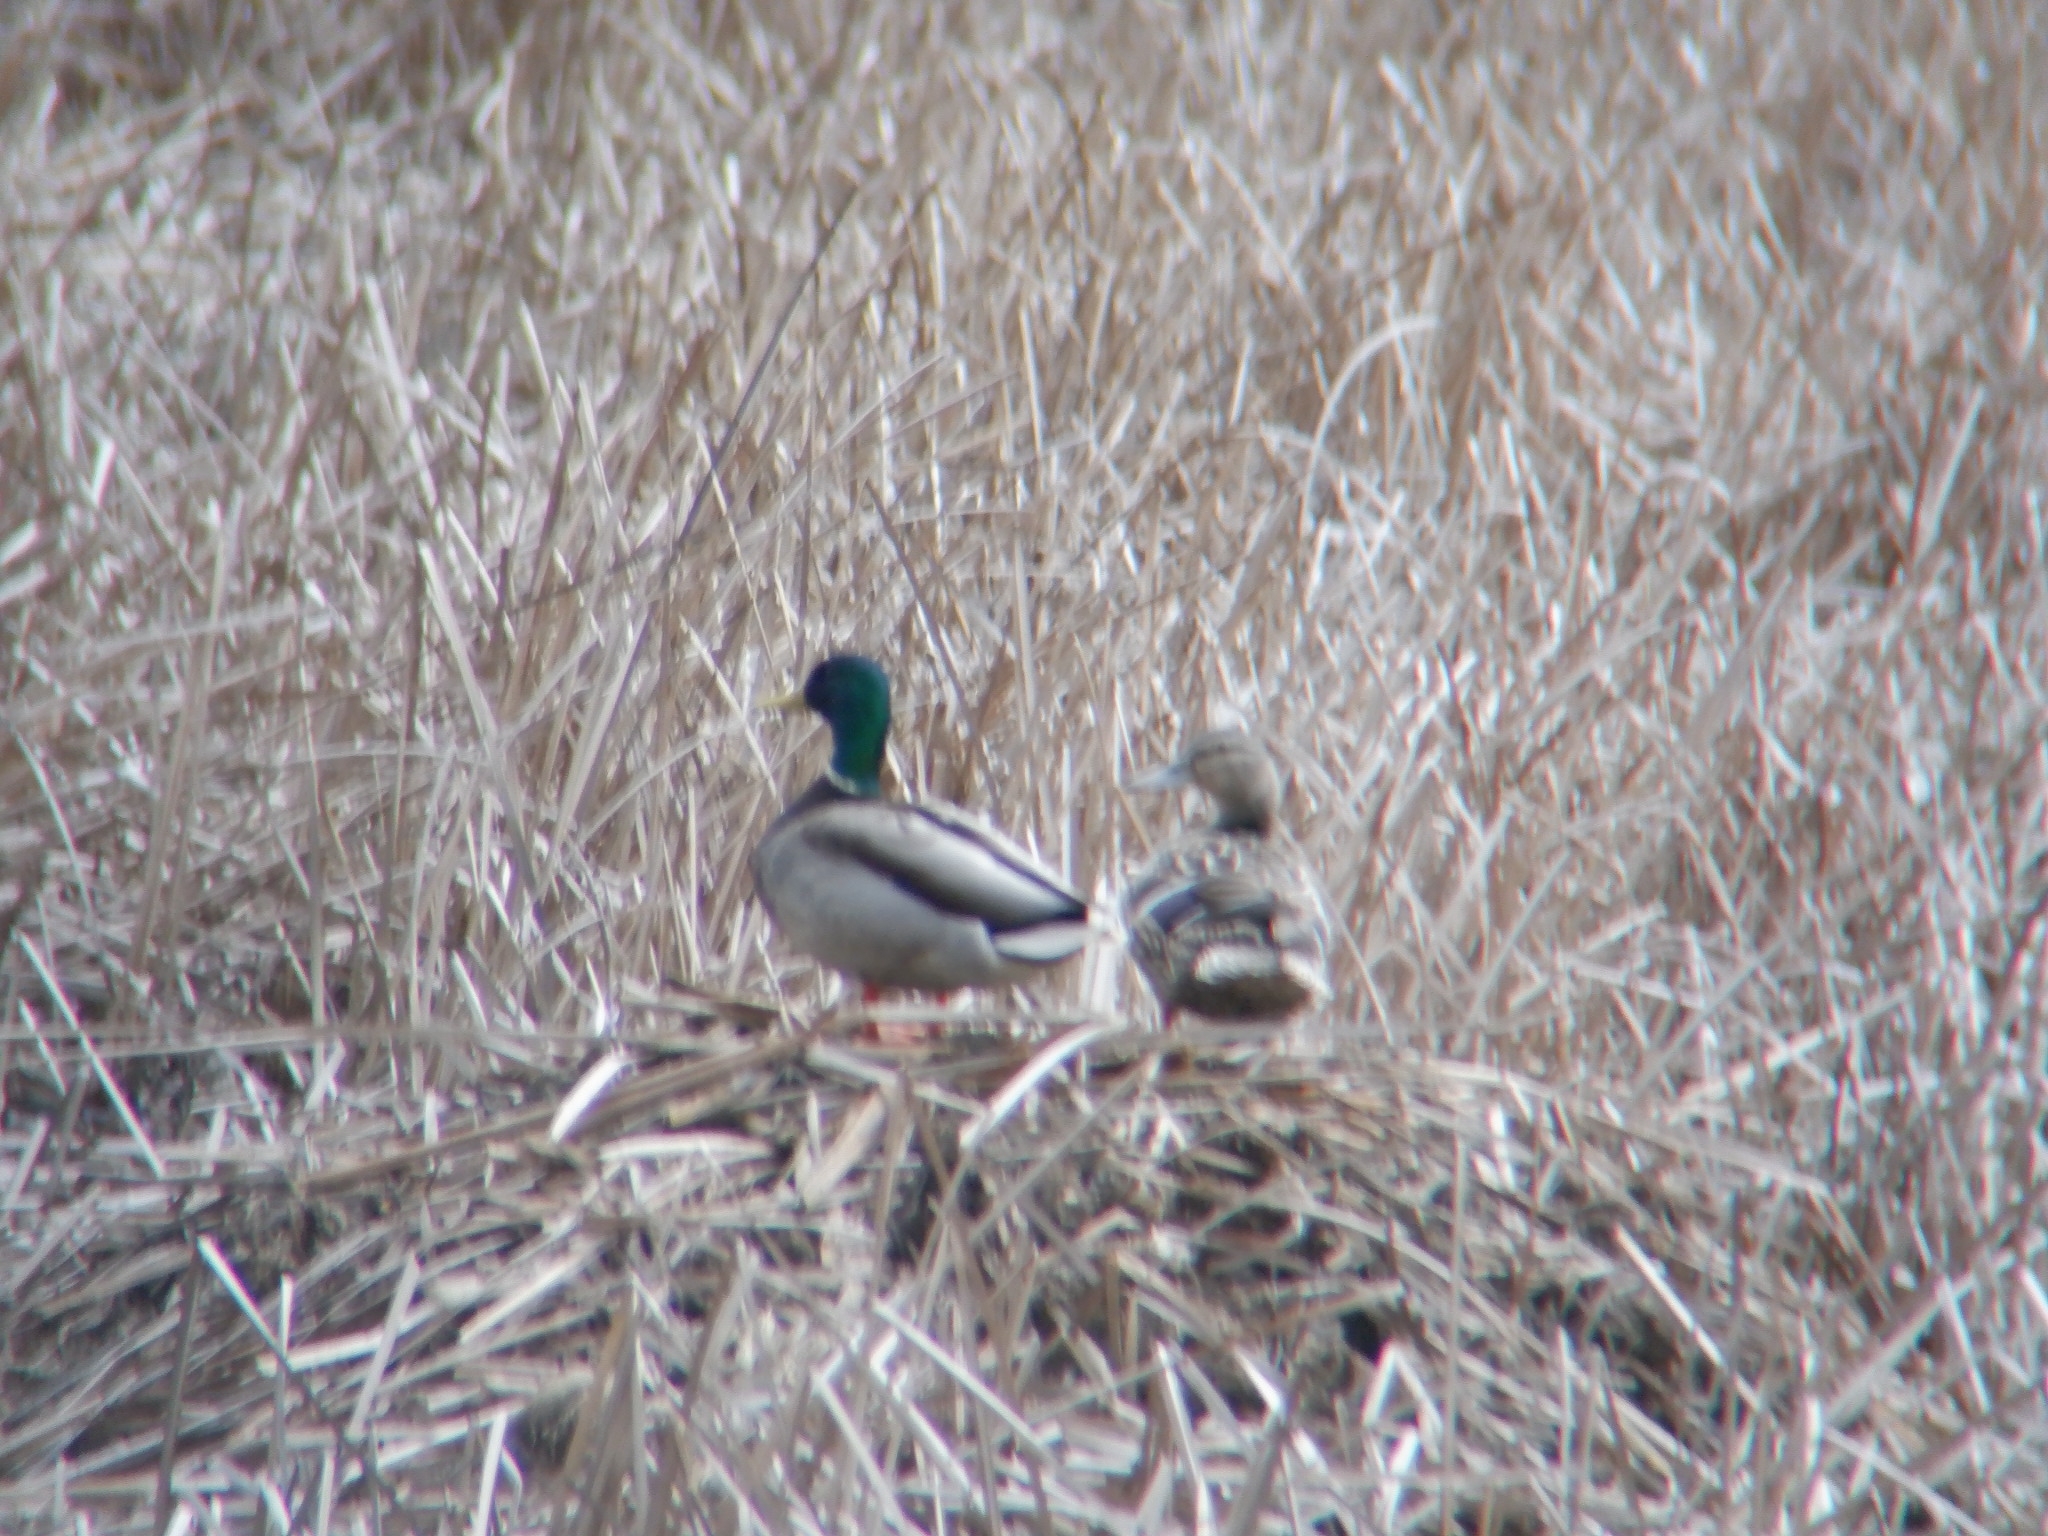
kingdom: Animalia
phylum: Chordata
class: Aves
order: Anseriformes
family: Anatidae
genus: Anas
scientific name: Anas platyrhynchos
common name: Mallard
